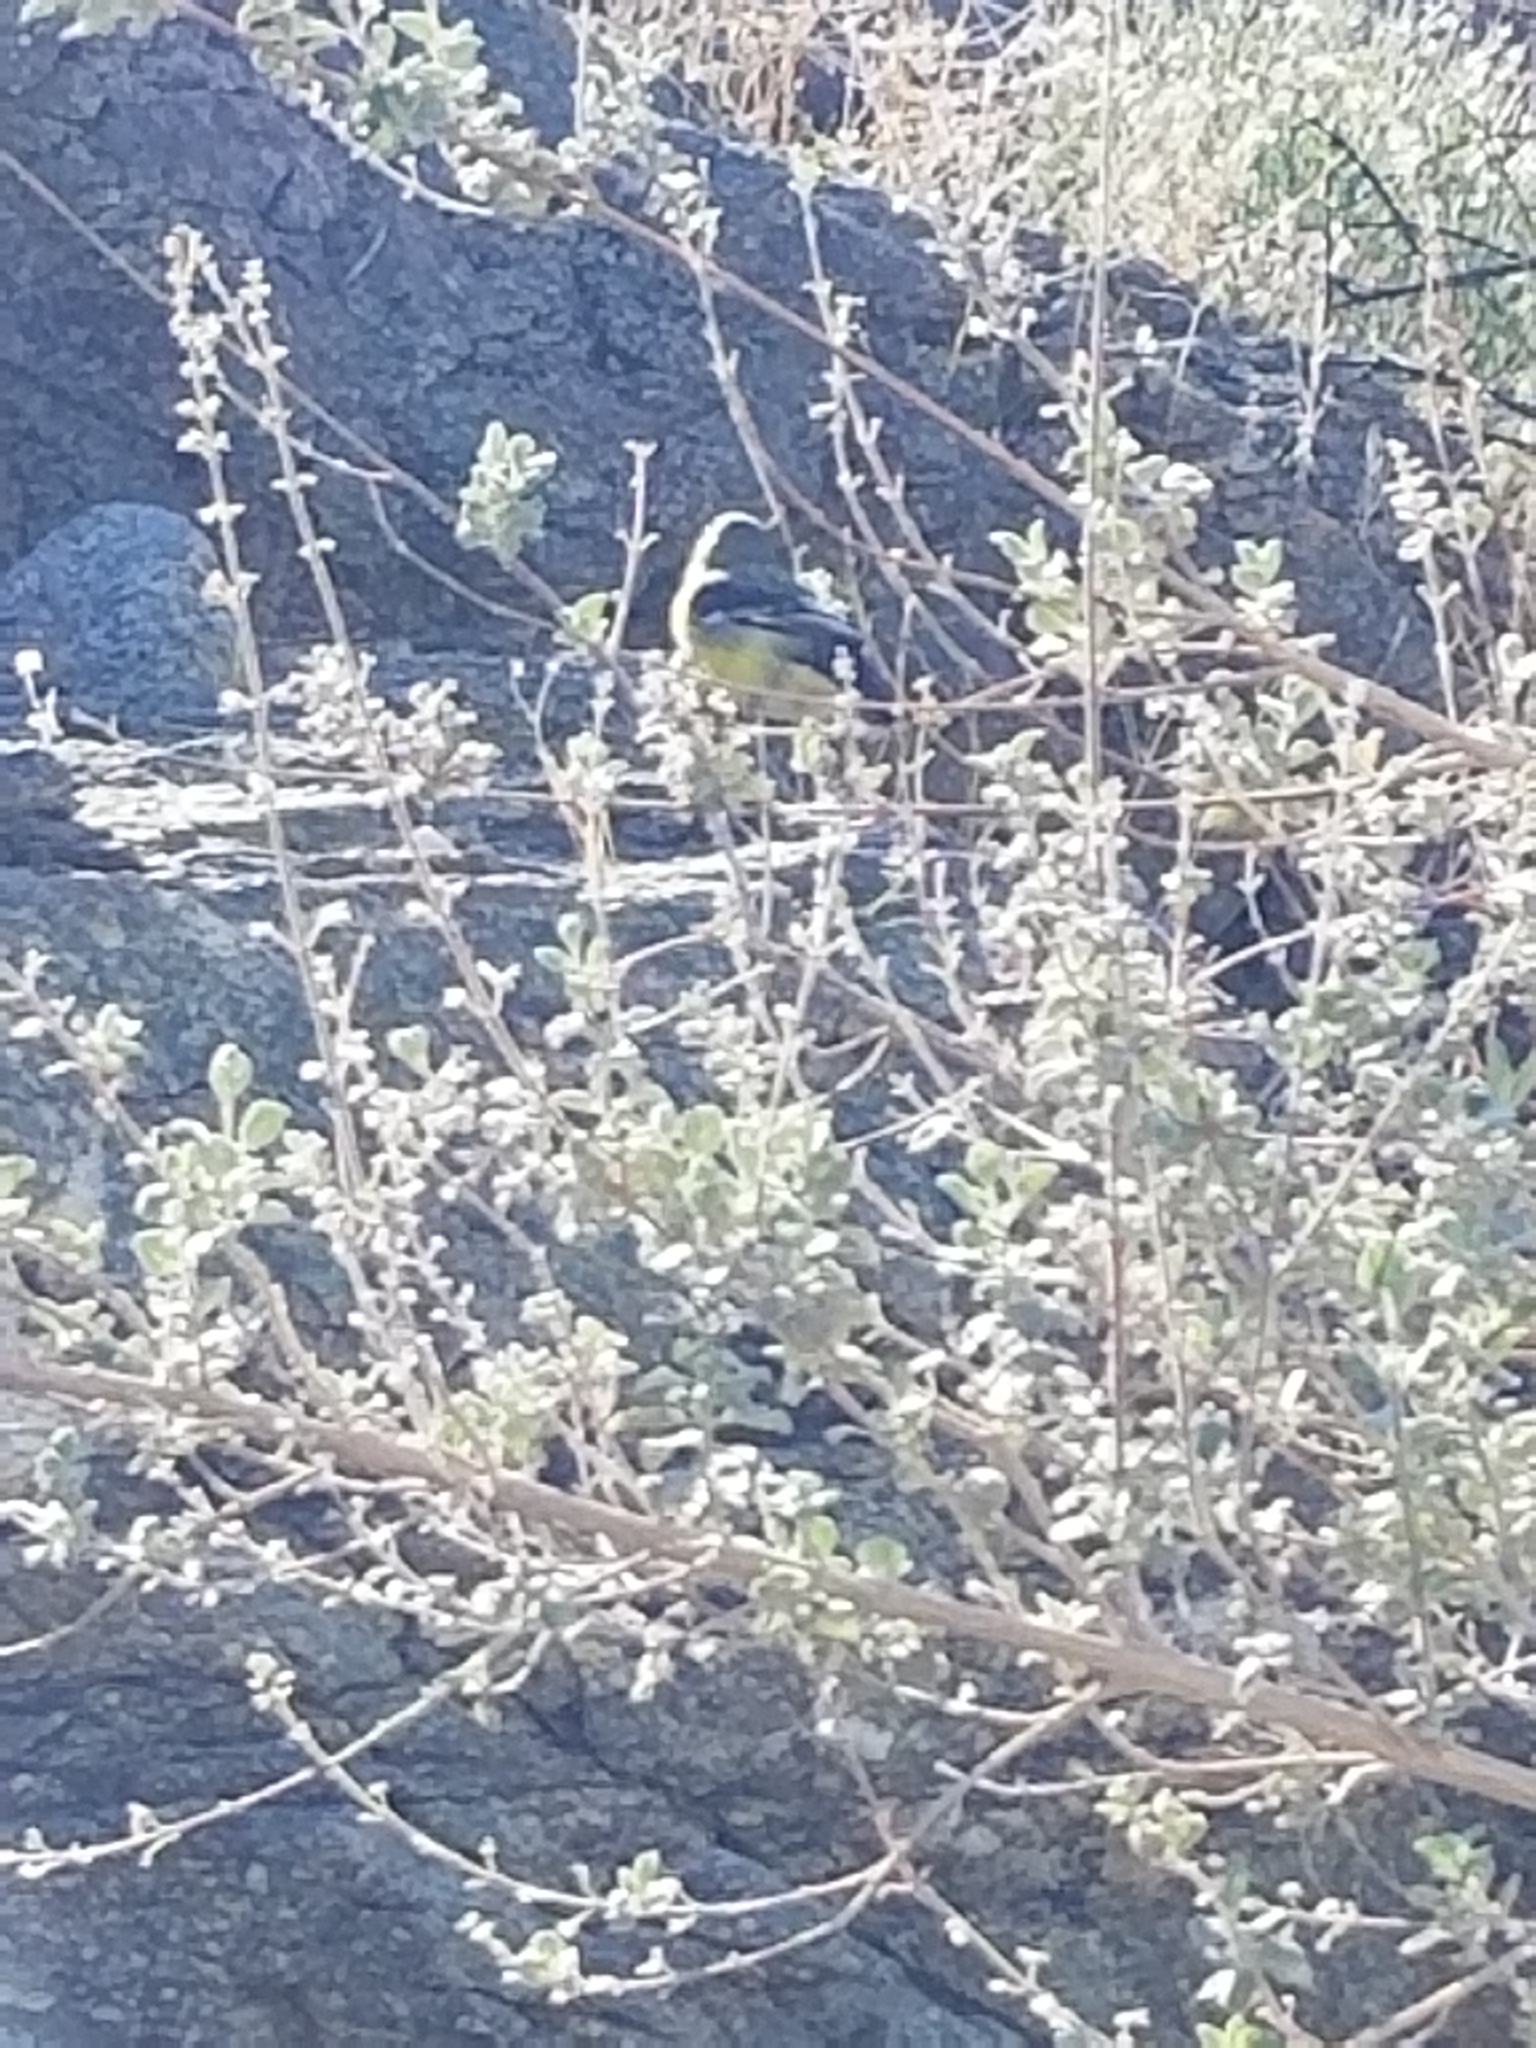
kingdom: Animalia
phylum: Chordata
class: Aves
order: Passeriformes
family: Fringillidae
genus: Spinus
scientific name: Spinus psaltria
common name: Lesser goldfinch
